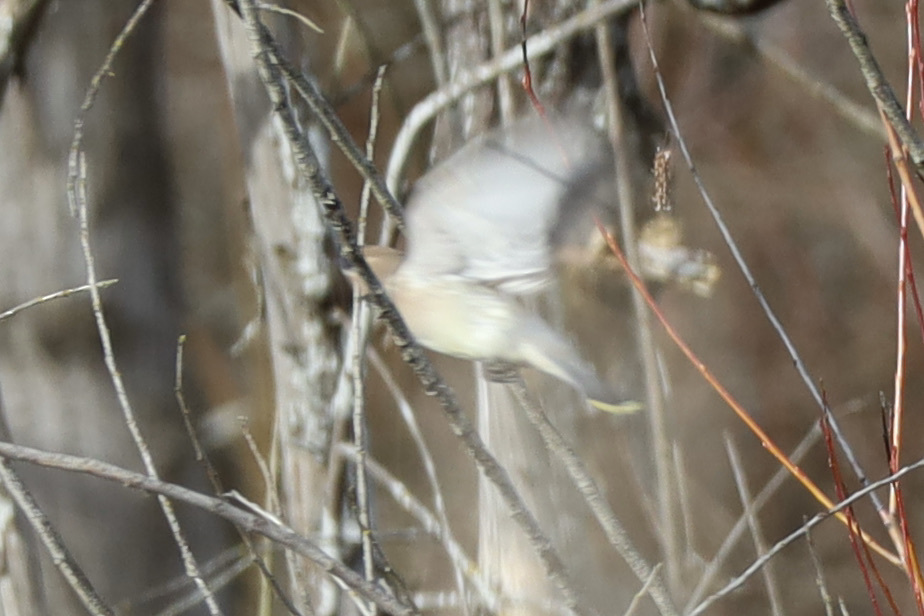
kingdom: Animalia
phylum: Chordata
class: Aves
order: Passeriformes
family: Bombycillidae
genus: Bombycilla
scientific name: Bombycilla cedrorum
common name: Cedar waxwing
